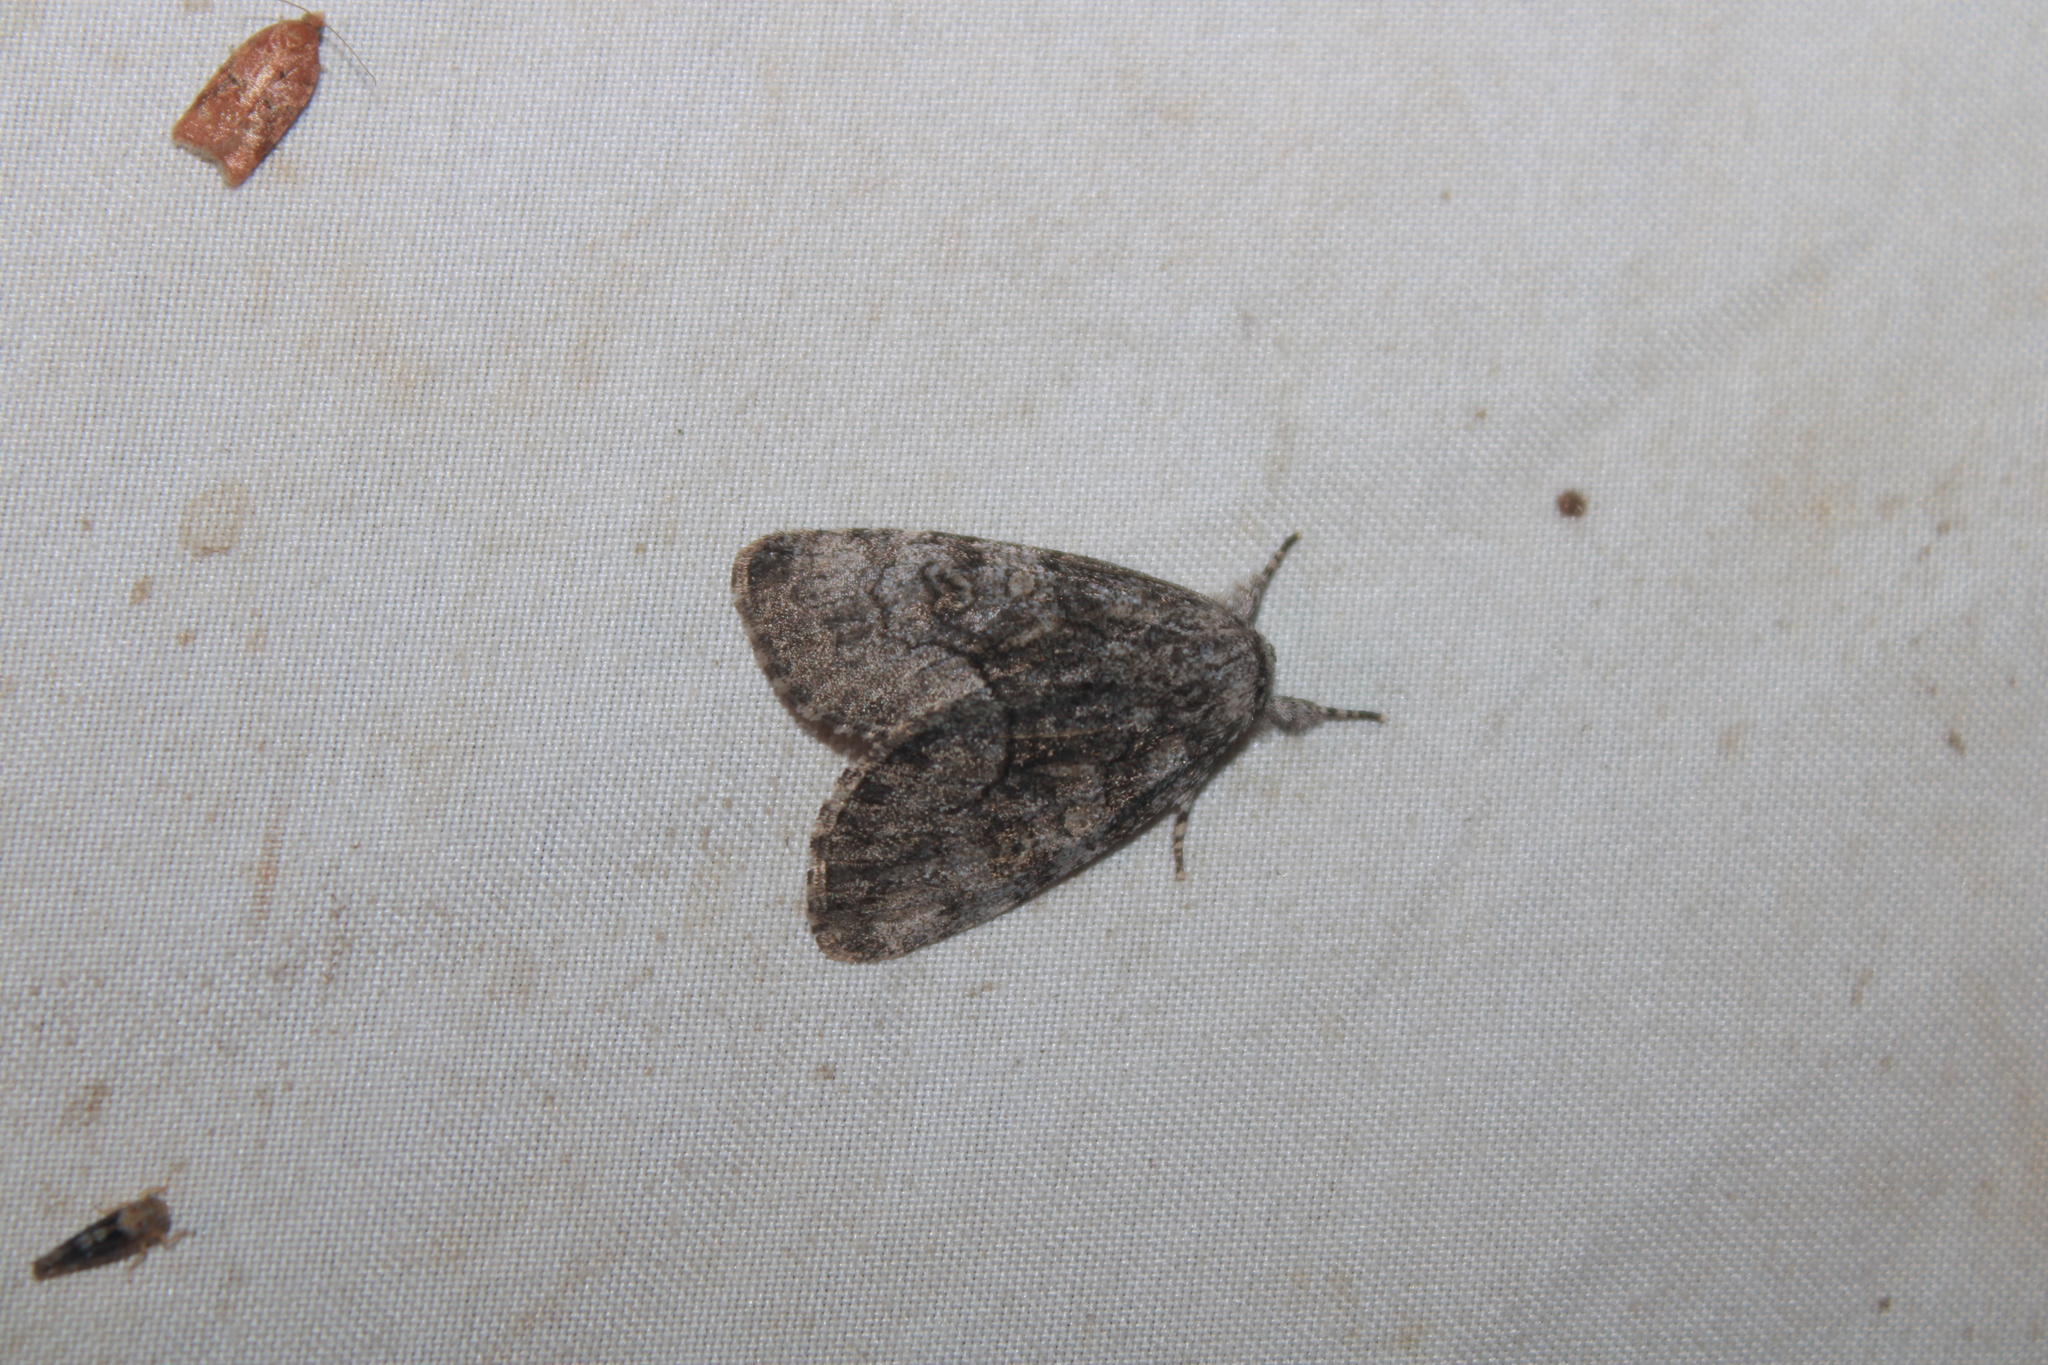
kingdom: Animalia
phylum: Arthropoda
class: Insecta
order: Lepidoptera
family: Noctuidae
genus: Raphia
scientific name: Raphia frater
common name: Brother
